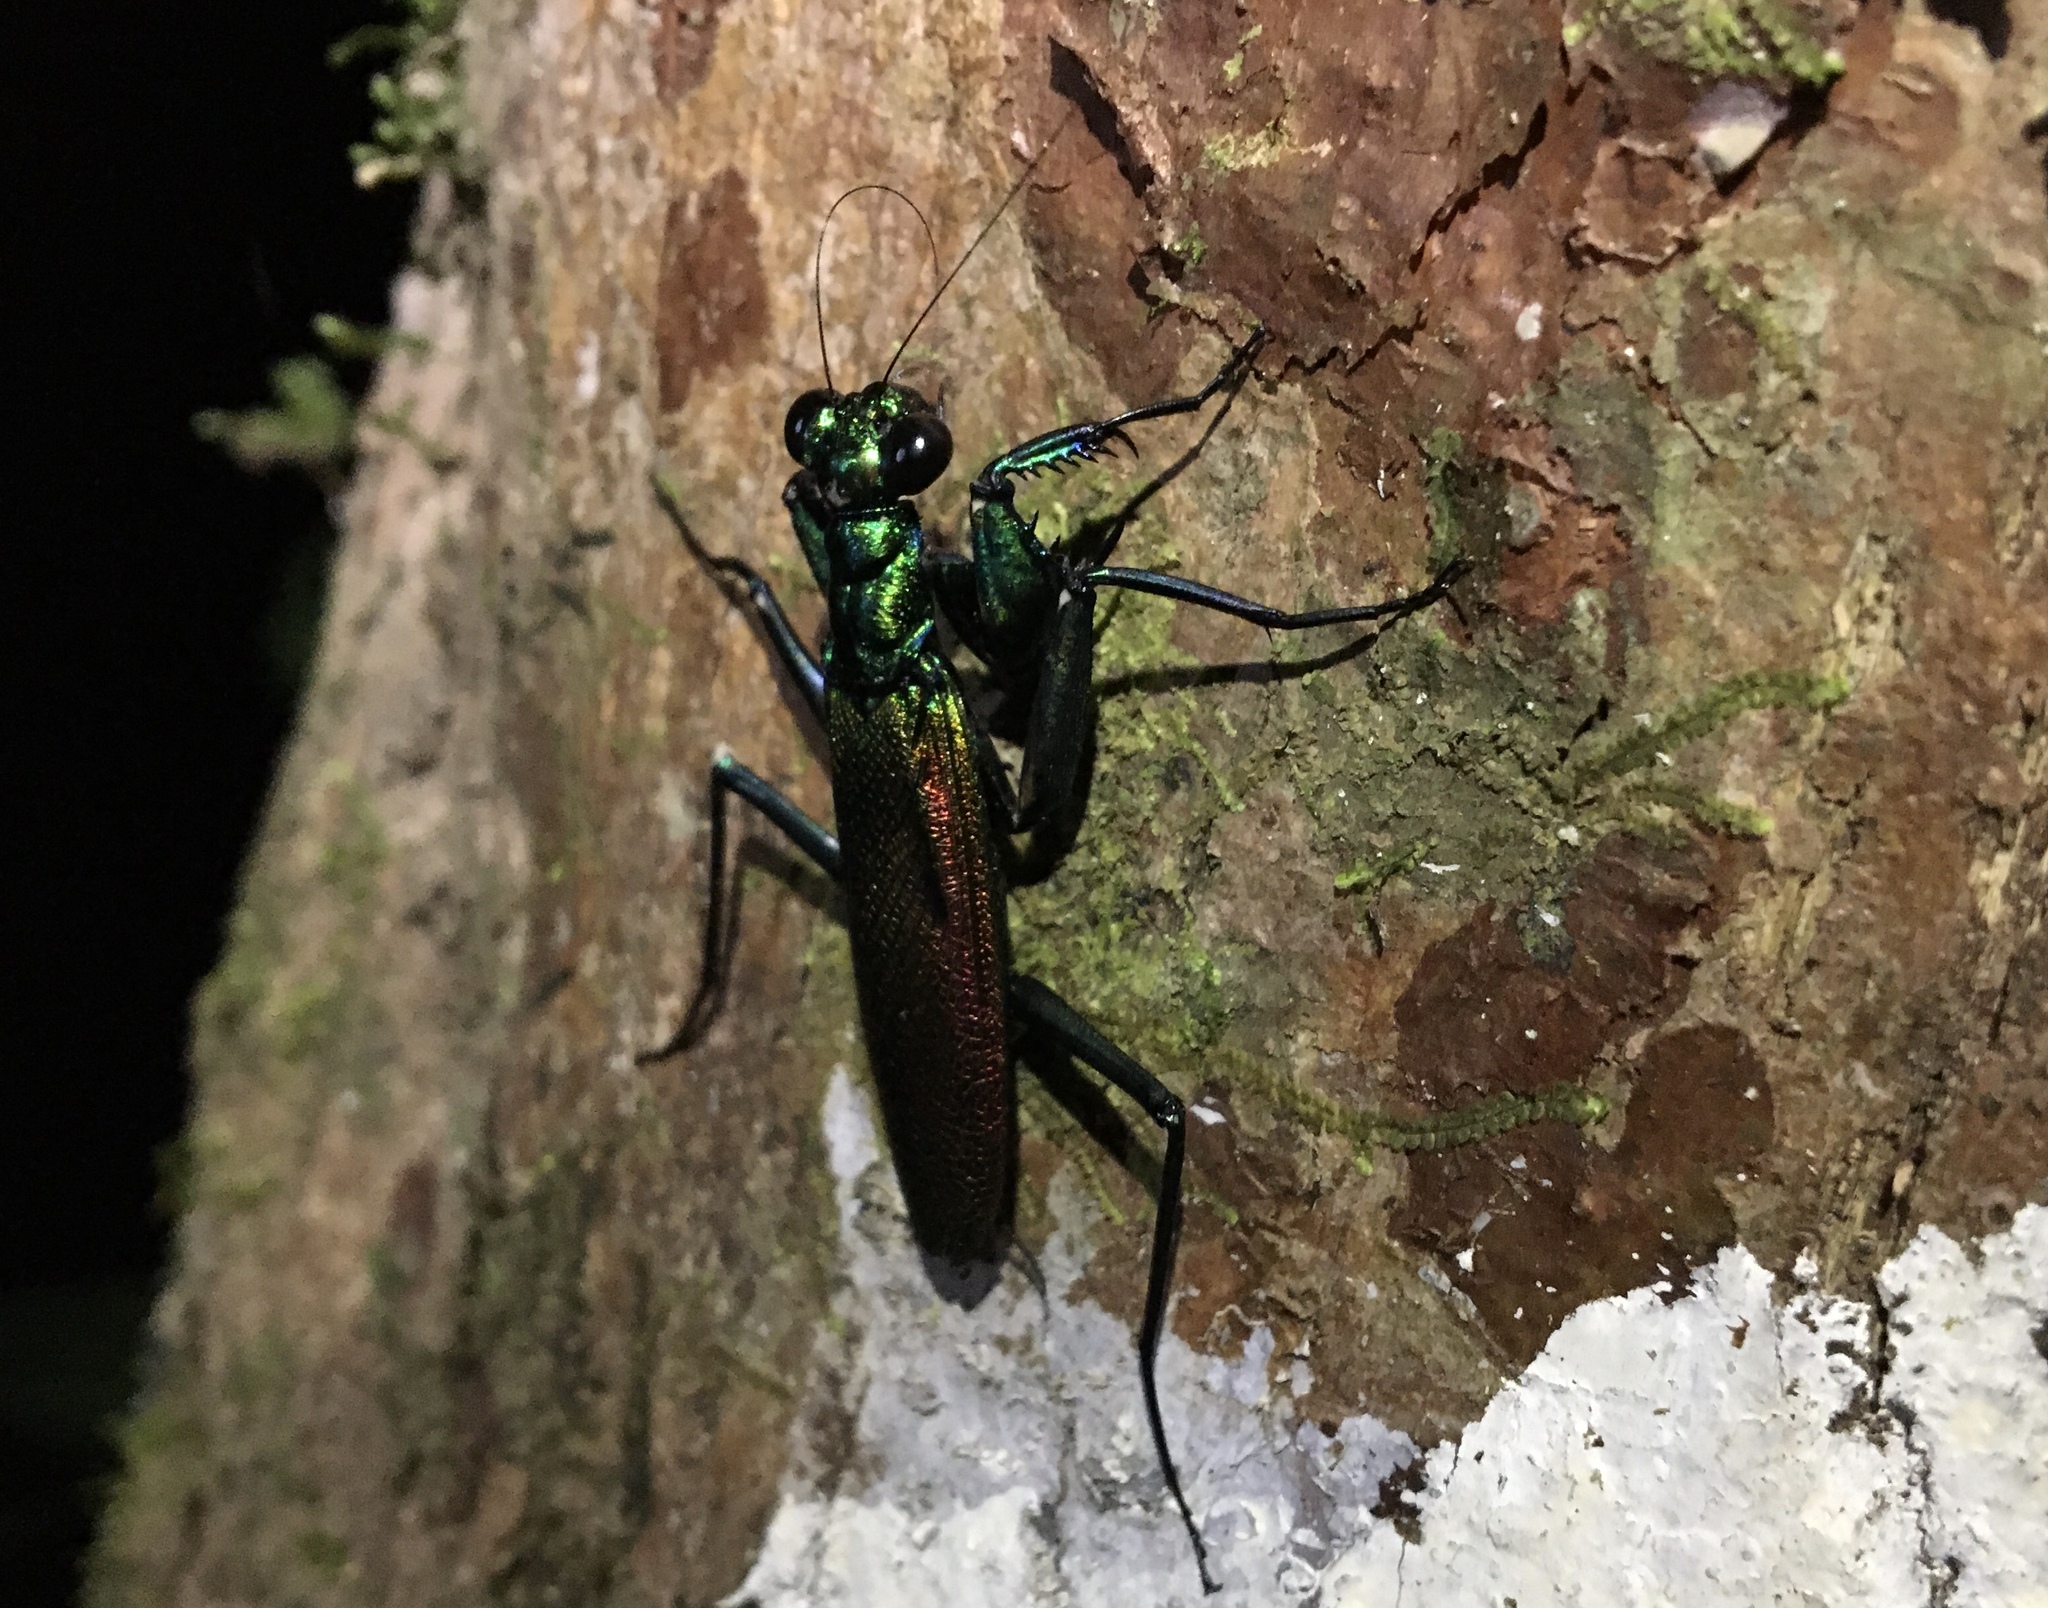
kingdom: Animalia
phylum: Arthropoda
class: Insecta
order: Mantodea
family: Metallyticidae
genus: Metallyticus
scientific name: Metallyticus splendidus
